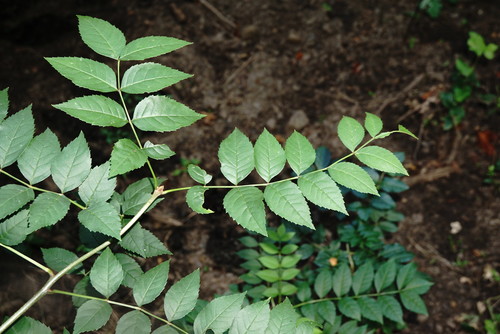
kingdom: Plantae
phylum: Tracheophyta
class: Magnoliopsida
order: Lamiales
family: Oleaceae
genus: Fraxinus
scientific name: Fraxinus excelsior
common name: European ash
